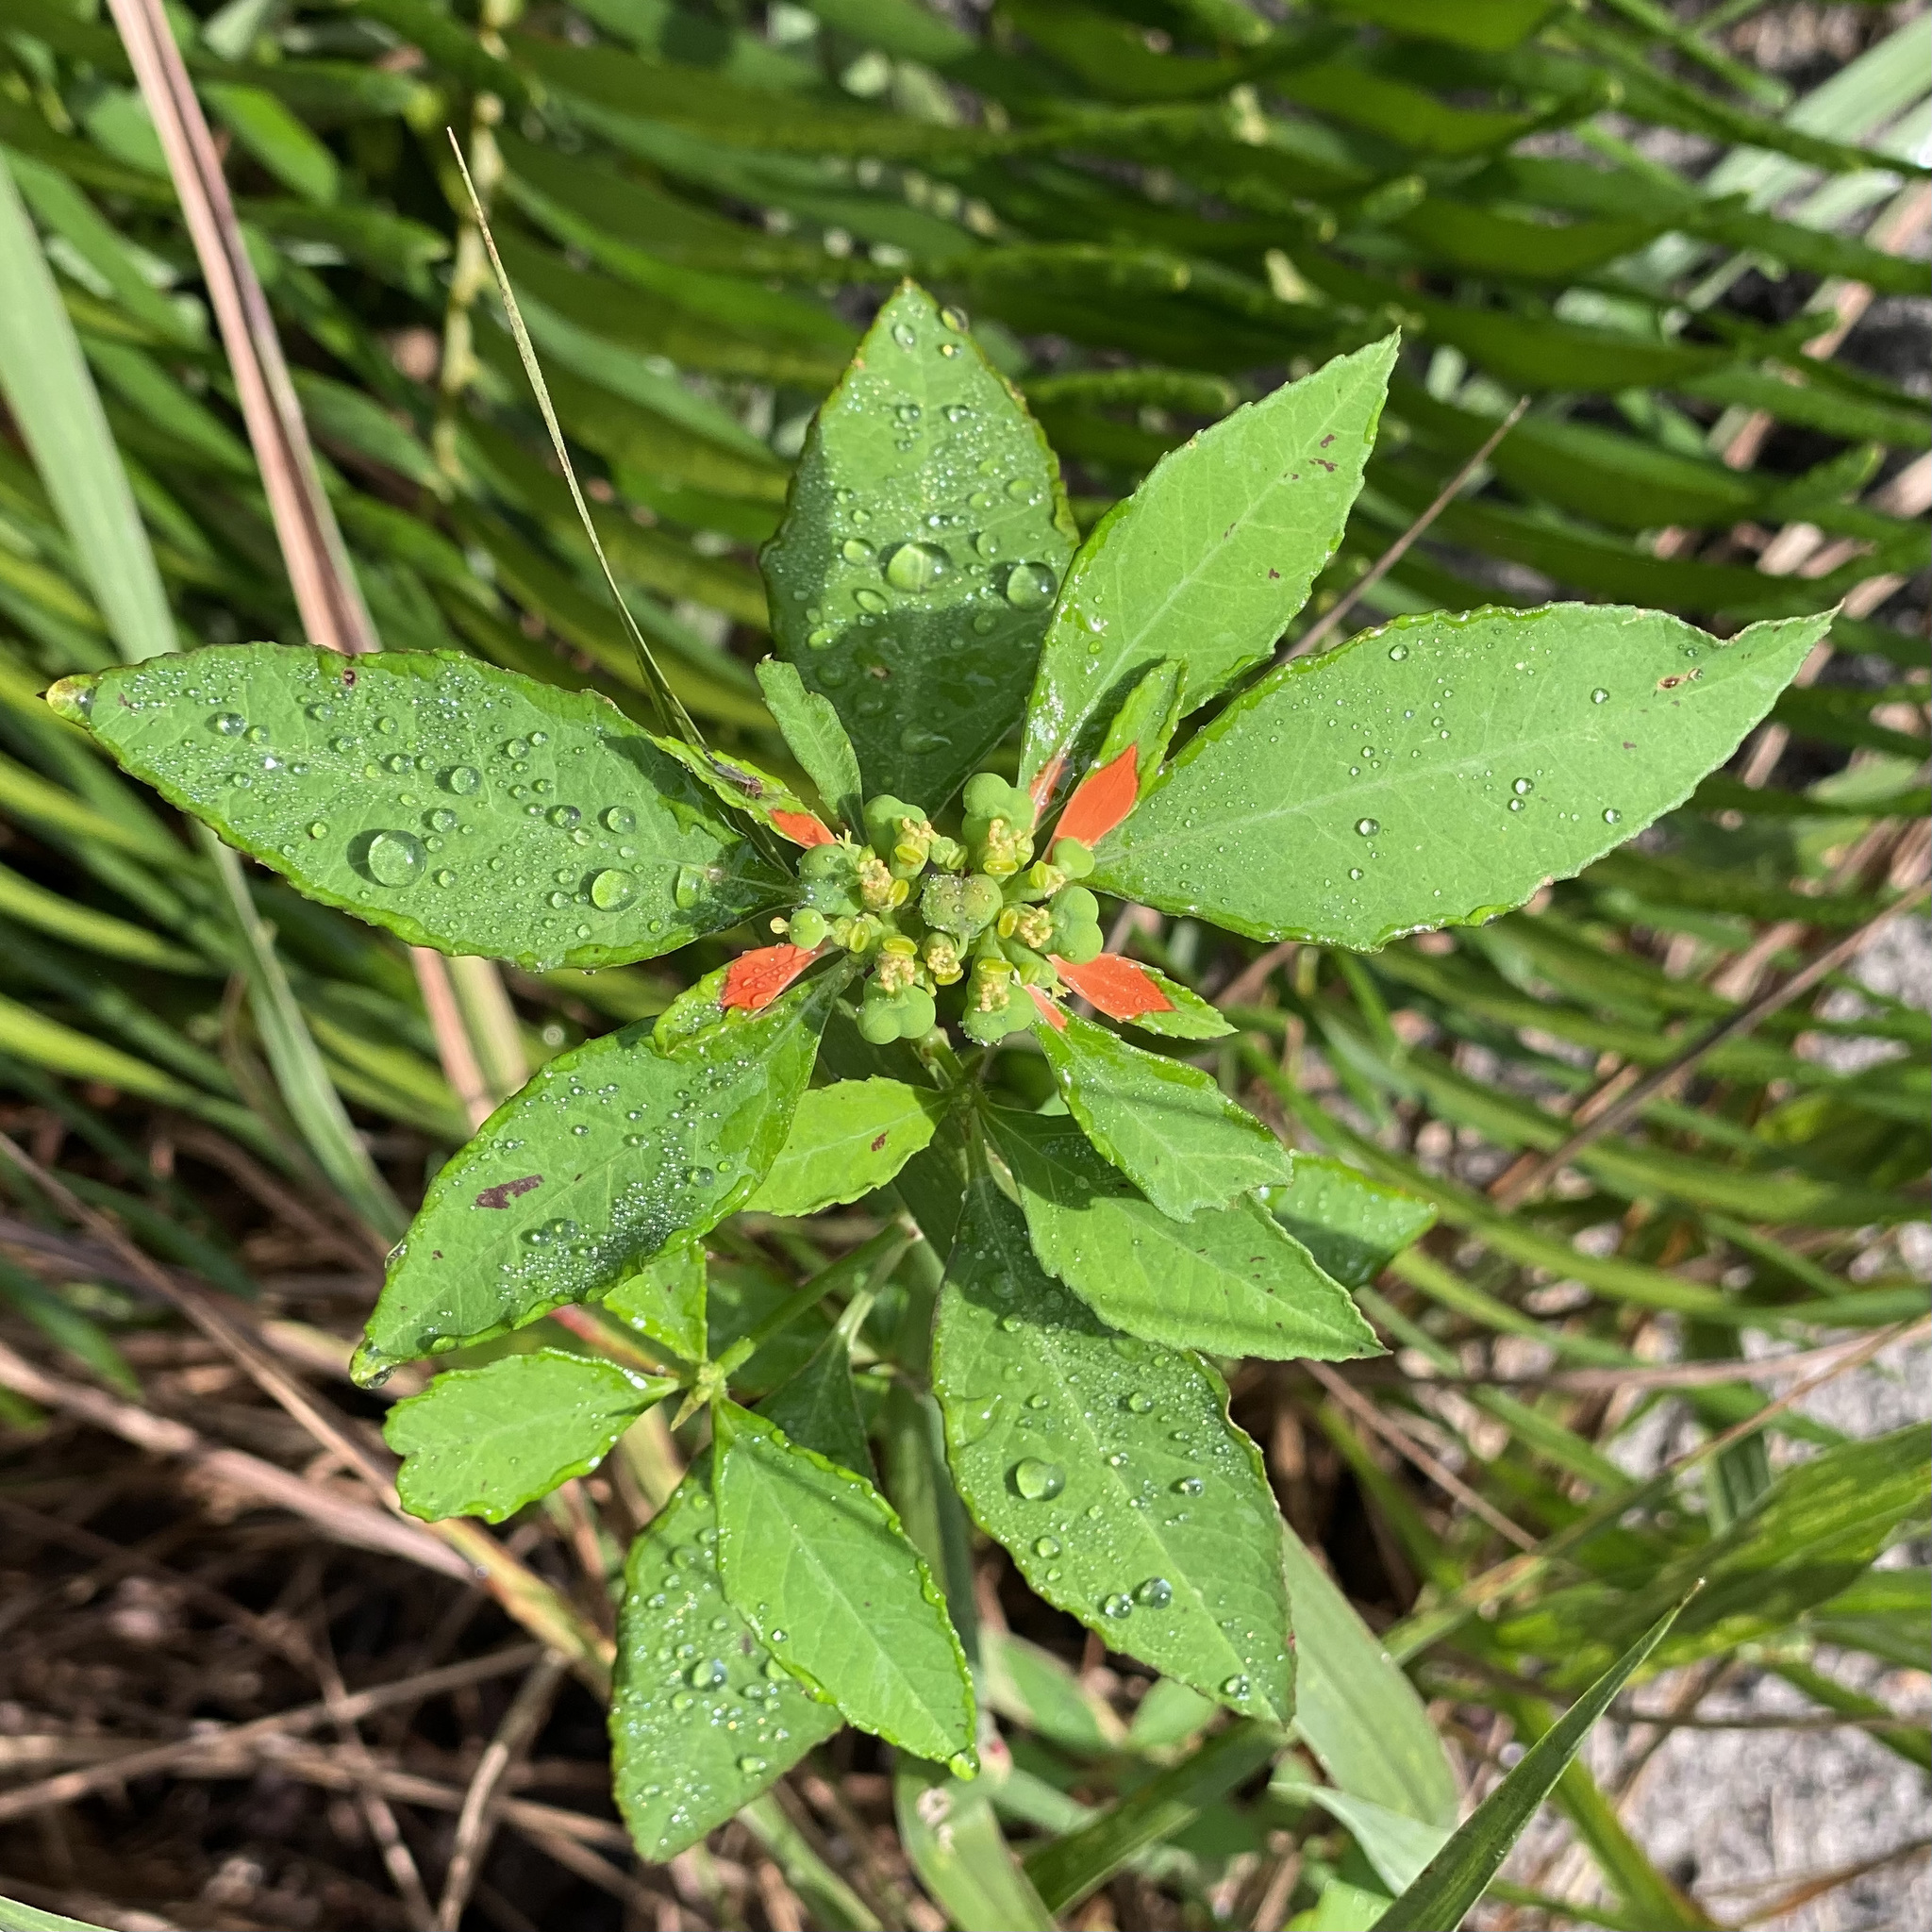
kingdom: Plantae
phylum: Tracheophyta
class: Magnoliopsida
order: Malpighiales
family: Euphorbiaceae
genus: Euphorbia
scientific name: Euphorbia heterophylla
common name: Mexican fireplant
